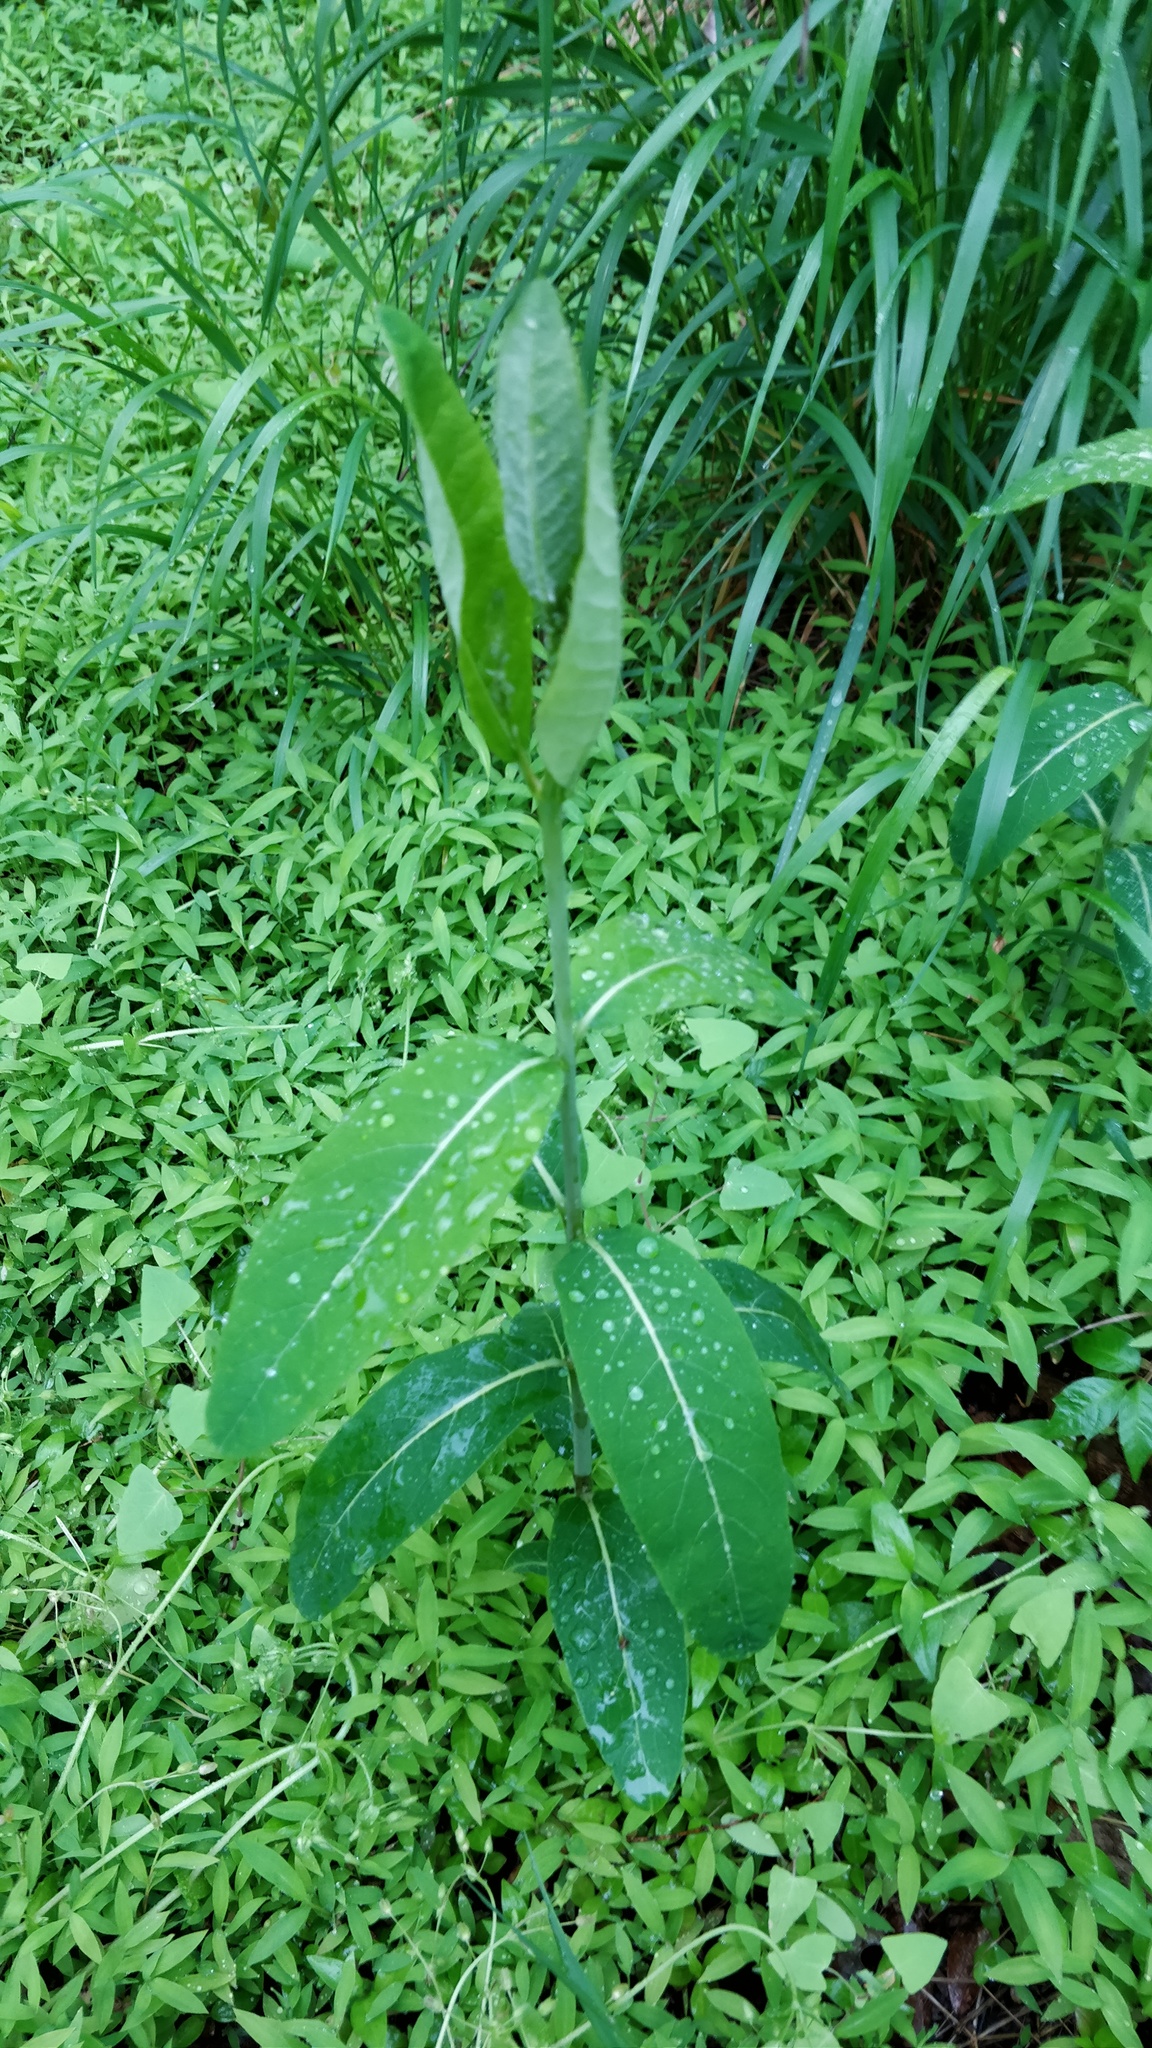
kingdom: Plantae
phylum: Tracheophyta
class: Magnoliopsida
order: Gentianales
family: Apocynaceae
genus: Apocynum
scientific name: Apocynum cannabinum
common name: Hemp dogbane
